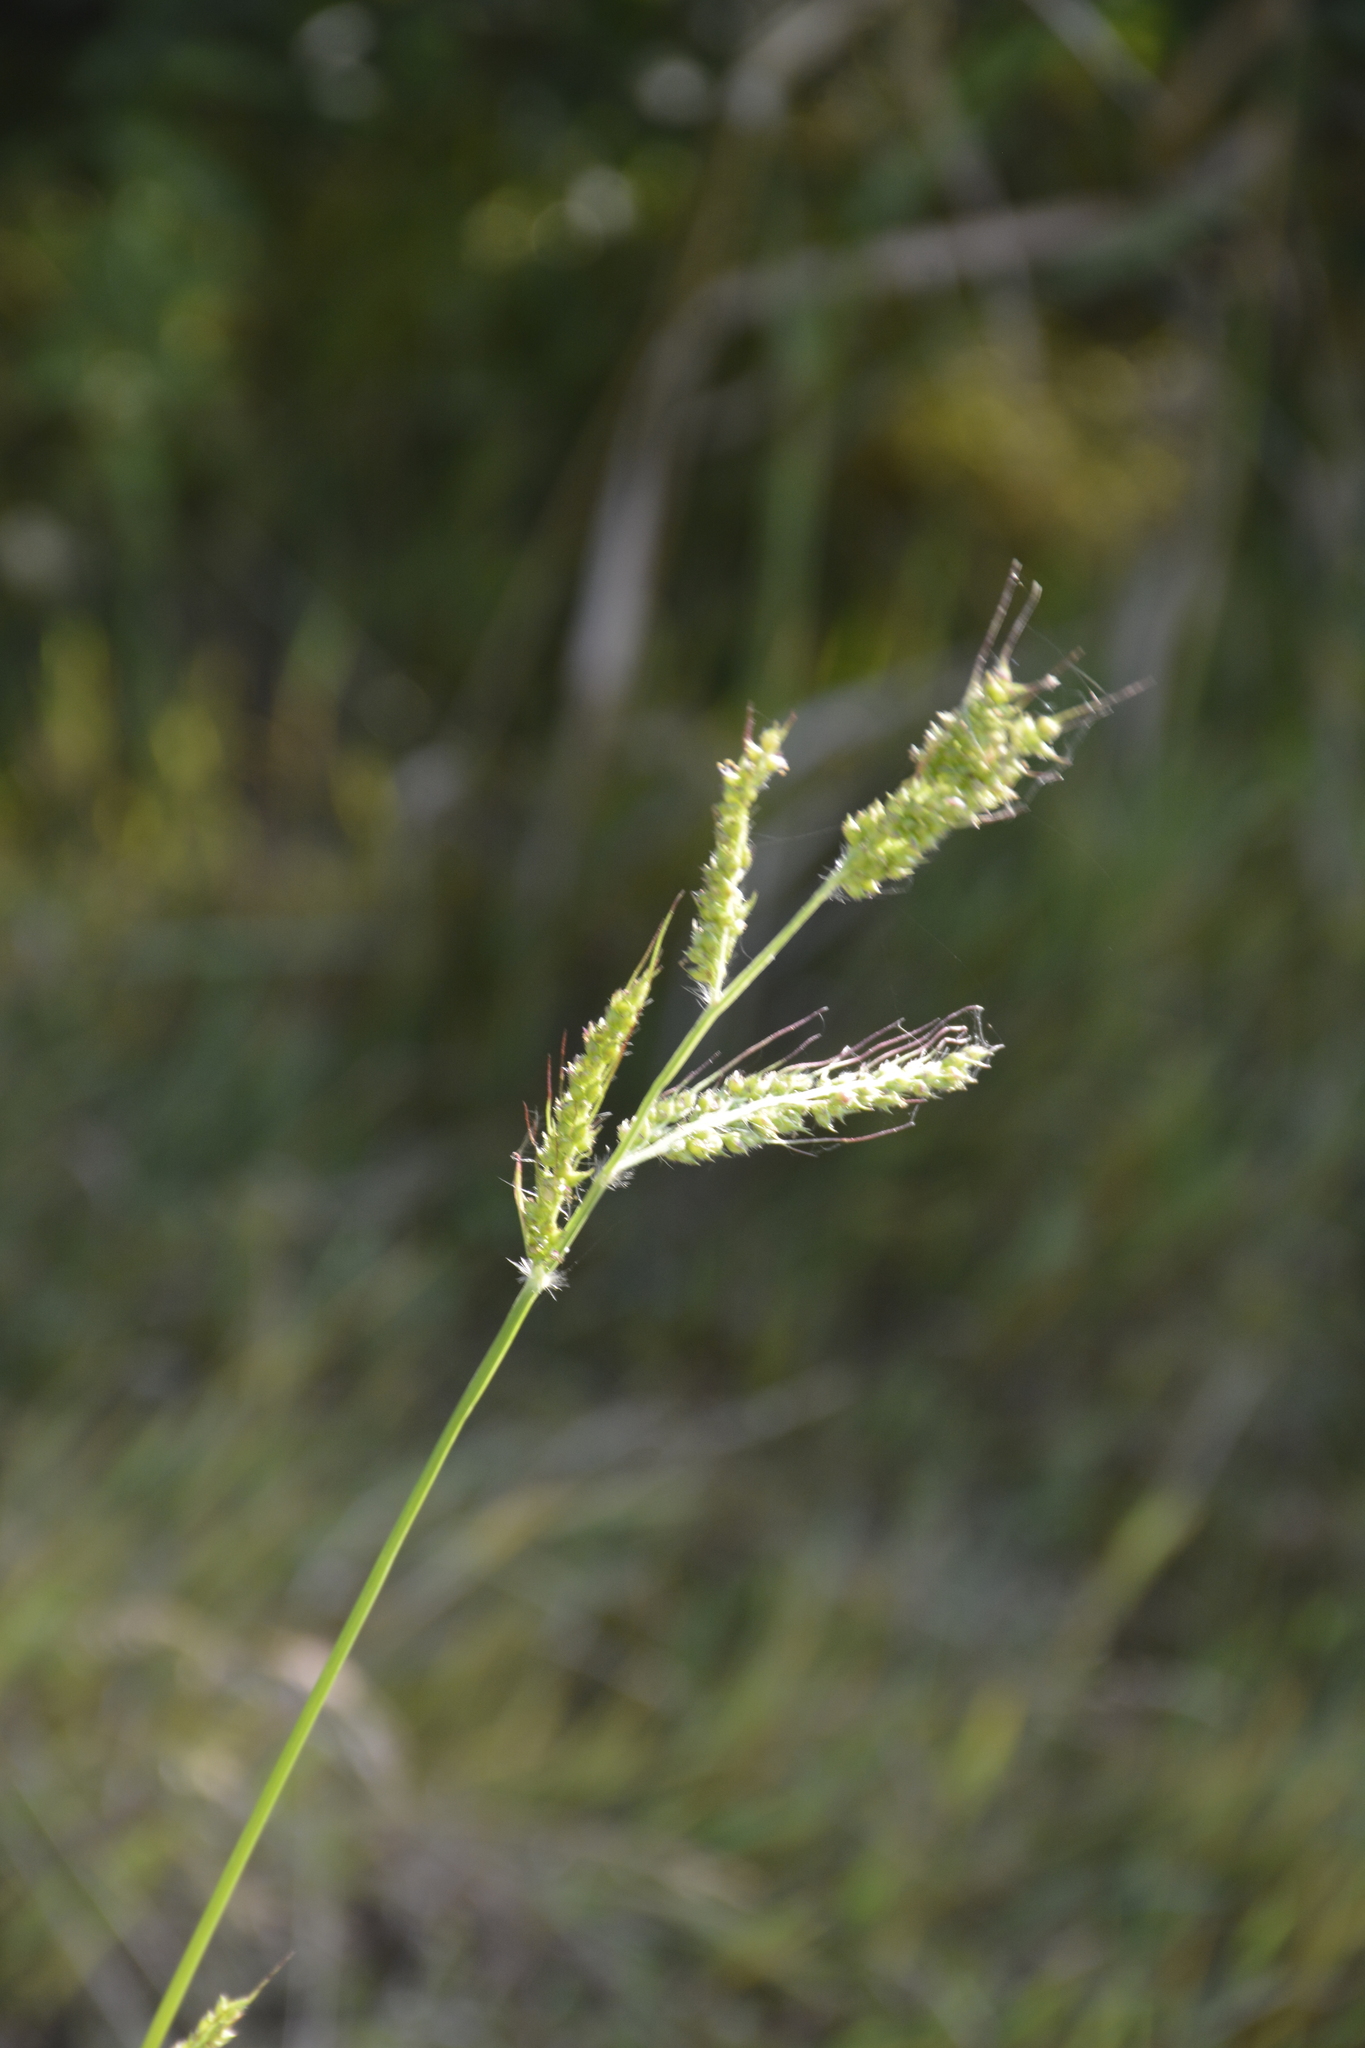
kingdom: Plantae
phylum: Tracheophyta
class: Liliopsida
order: Poales
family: Poaceae
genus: Echinochloa
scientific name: Echinochloa crus-galli
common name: Cockspur
